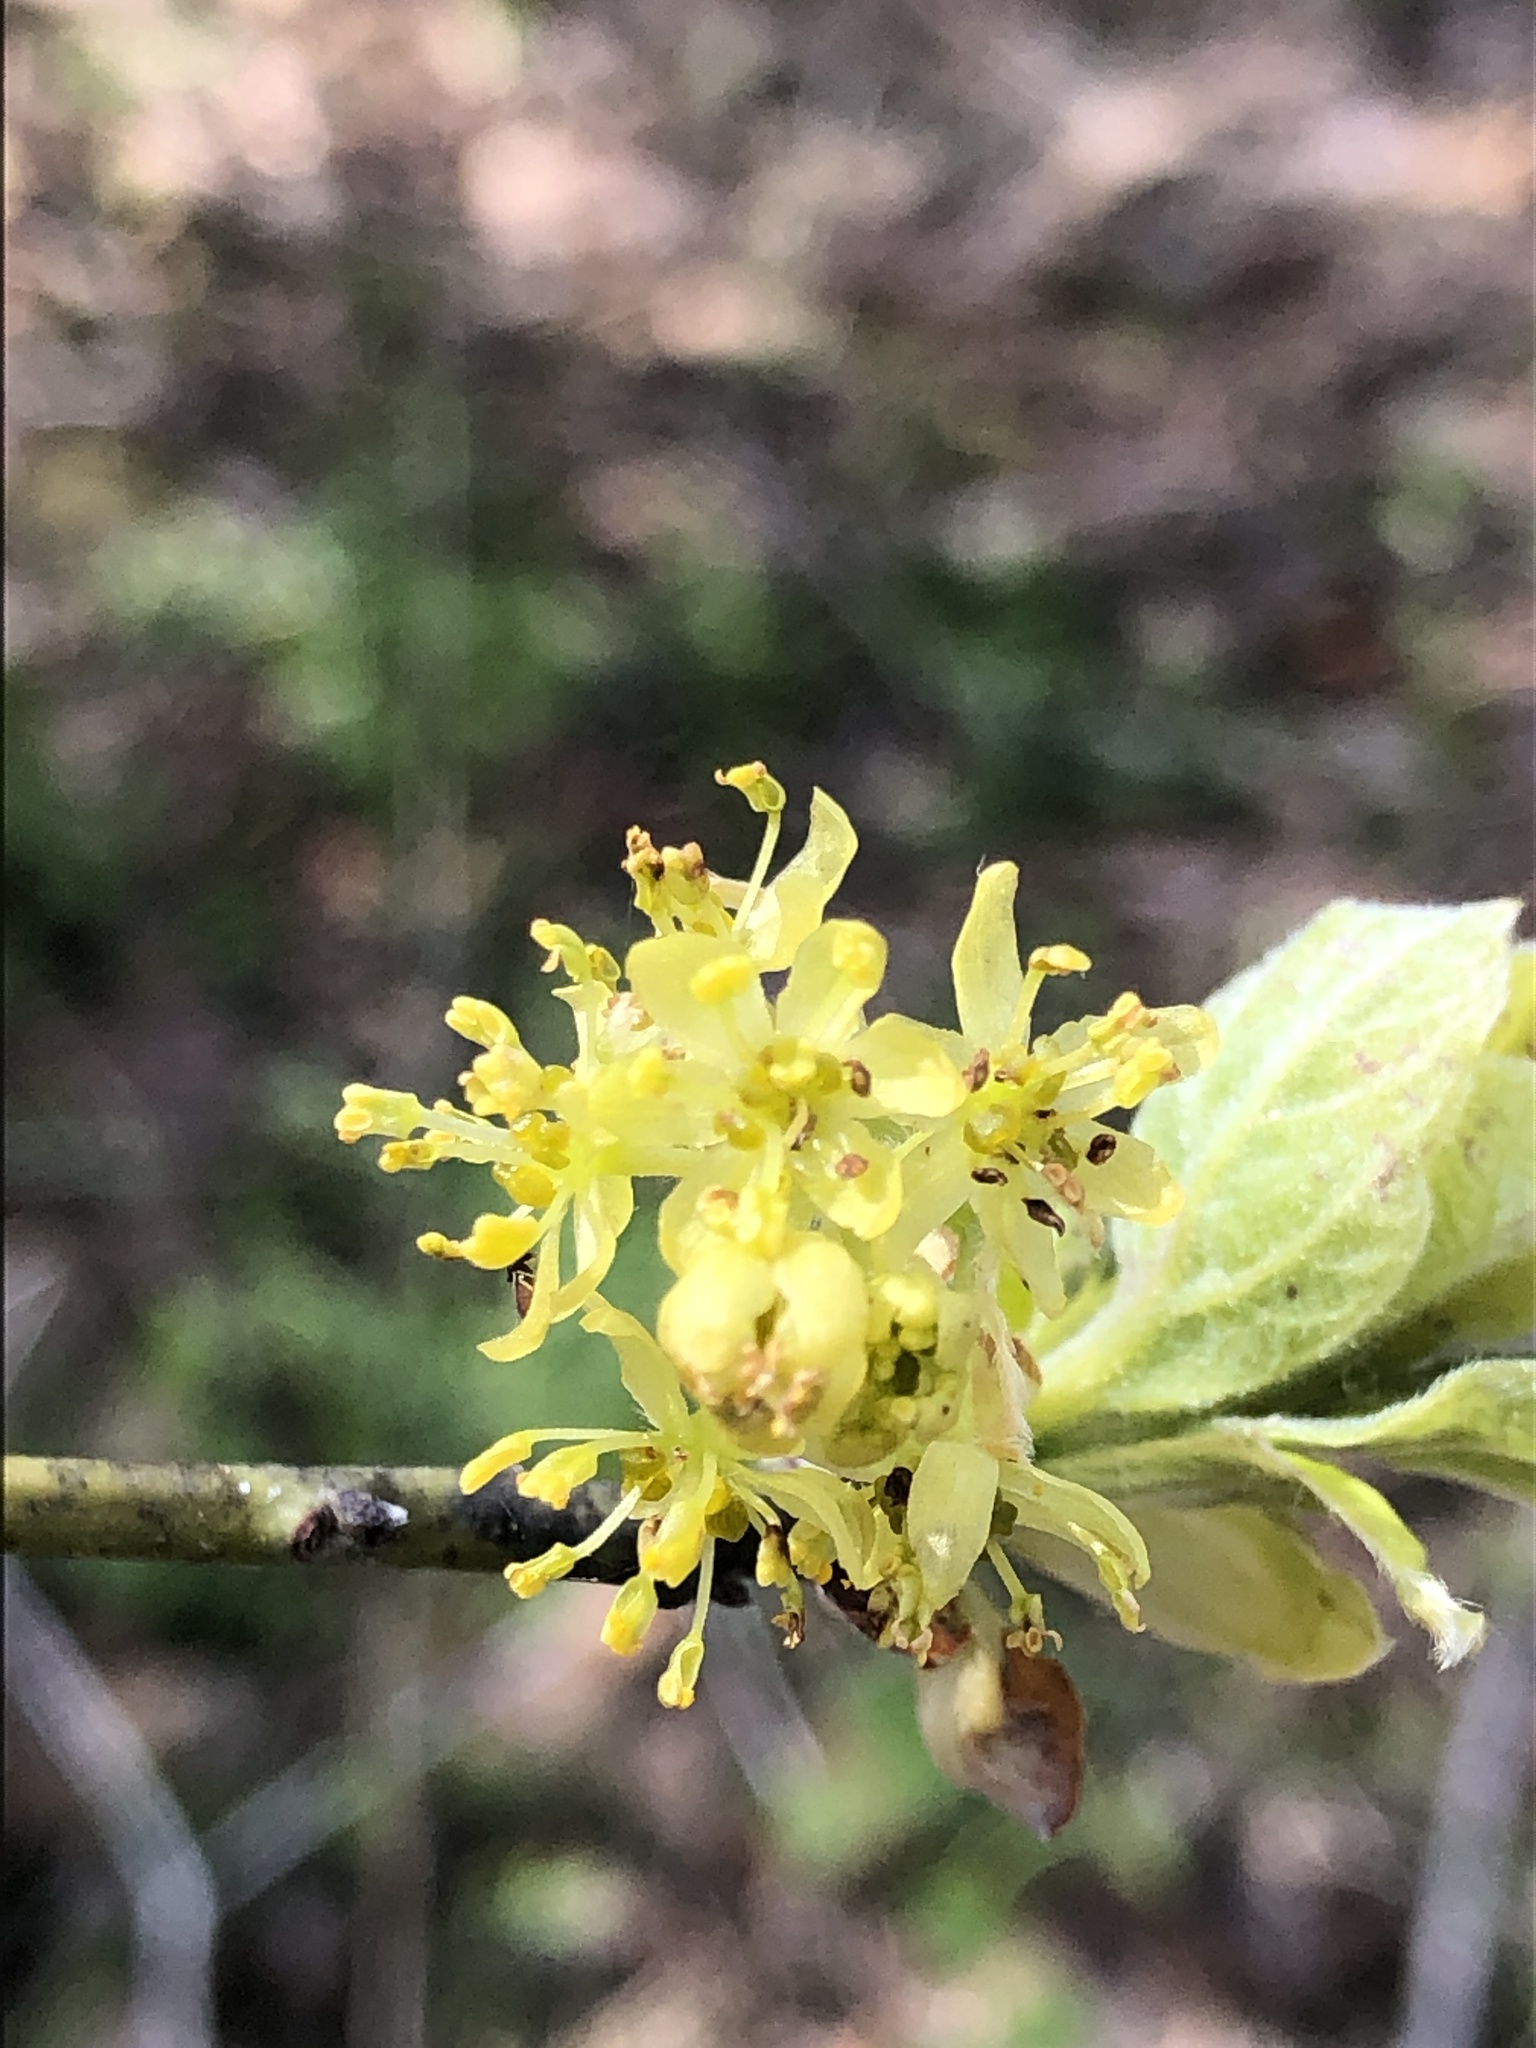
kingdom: Plantae
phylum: Tracheophyta
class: Magnoliopsida
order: Laurales
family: Lauraceae
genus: Sassafras
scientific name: Sassafras albidum
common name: Sassafras
